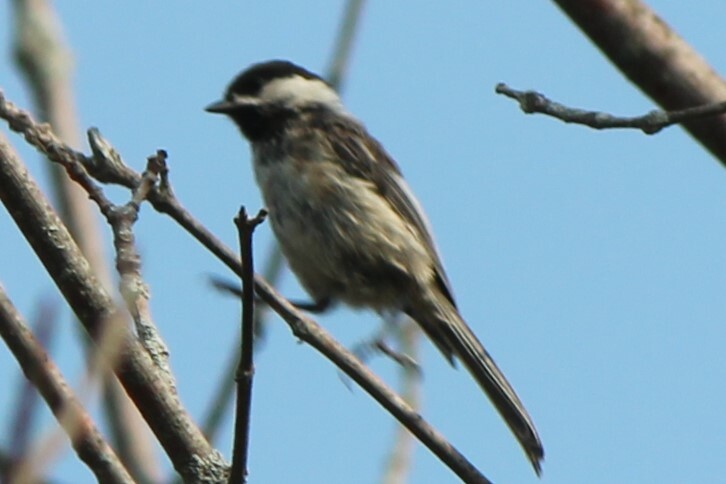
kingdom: Animalia
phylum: Chordata
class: Aves
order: Passeriformes
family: Paridae
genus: Poecile
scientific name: Poecile atricapillus
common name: Black-capped chickadee
